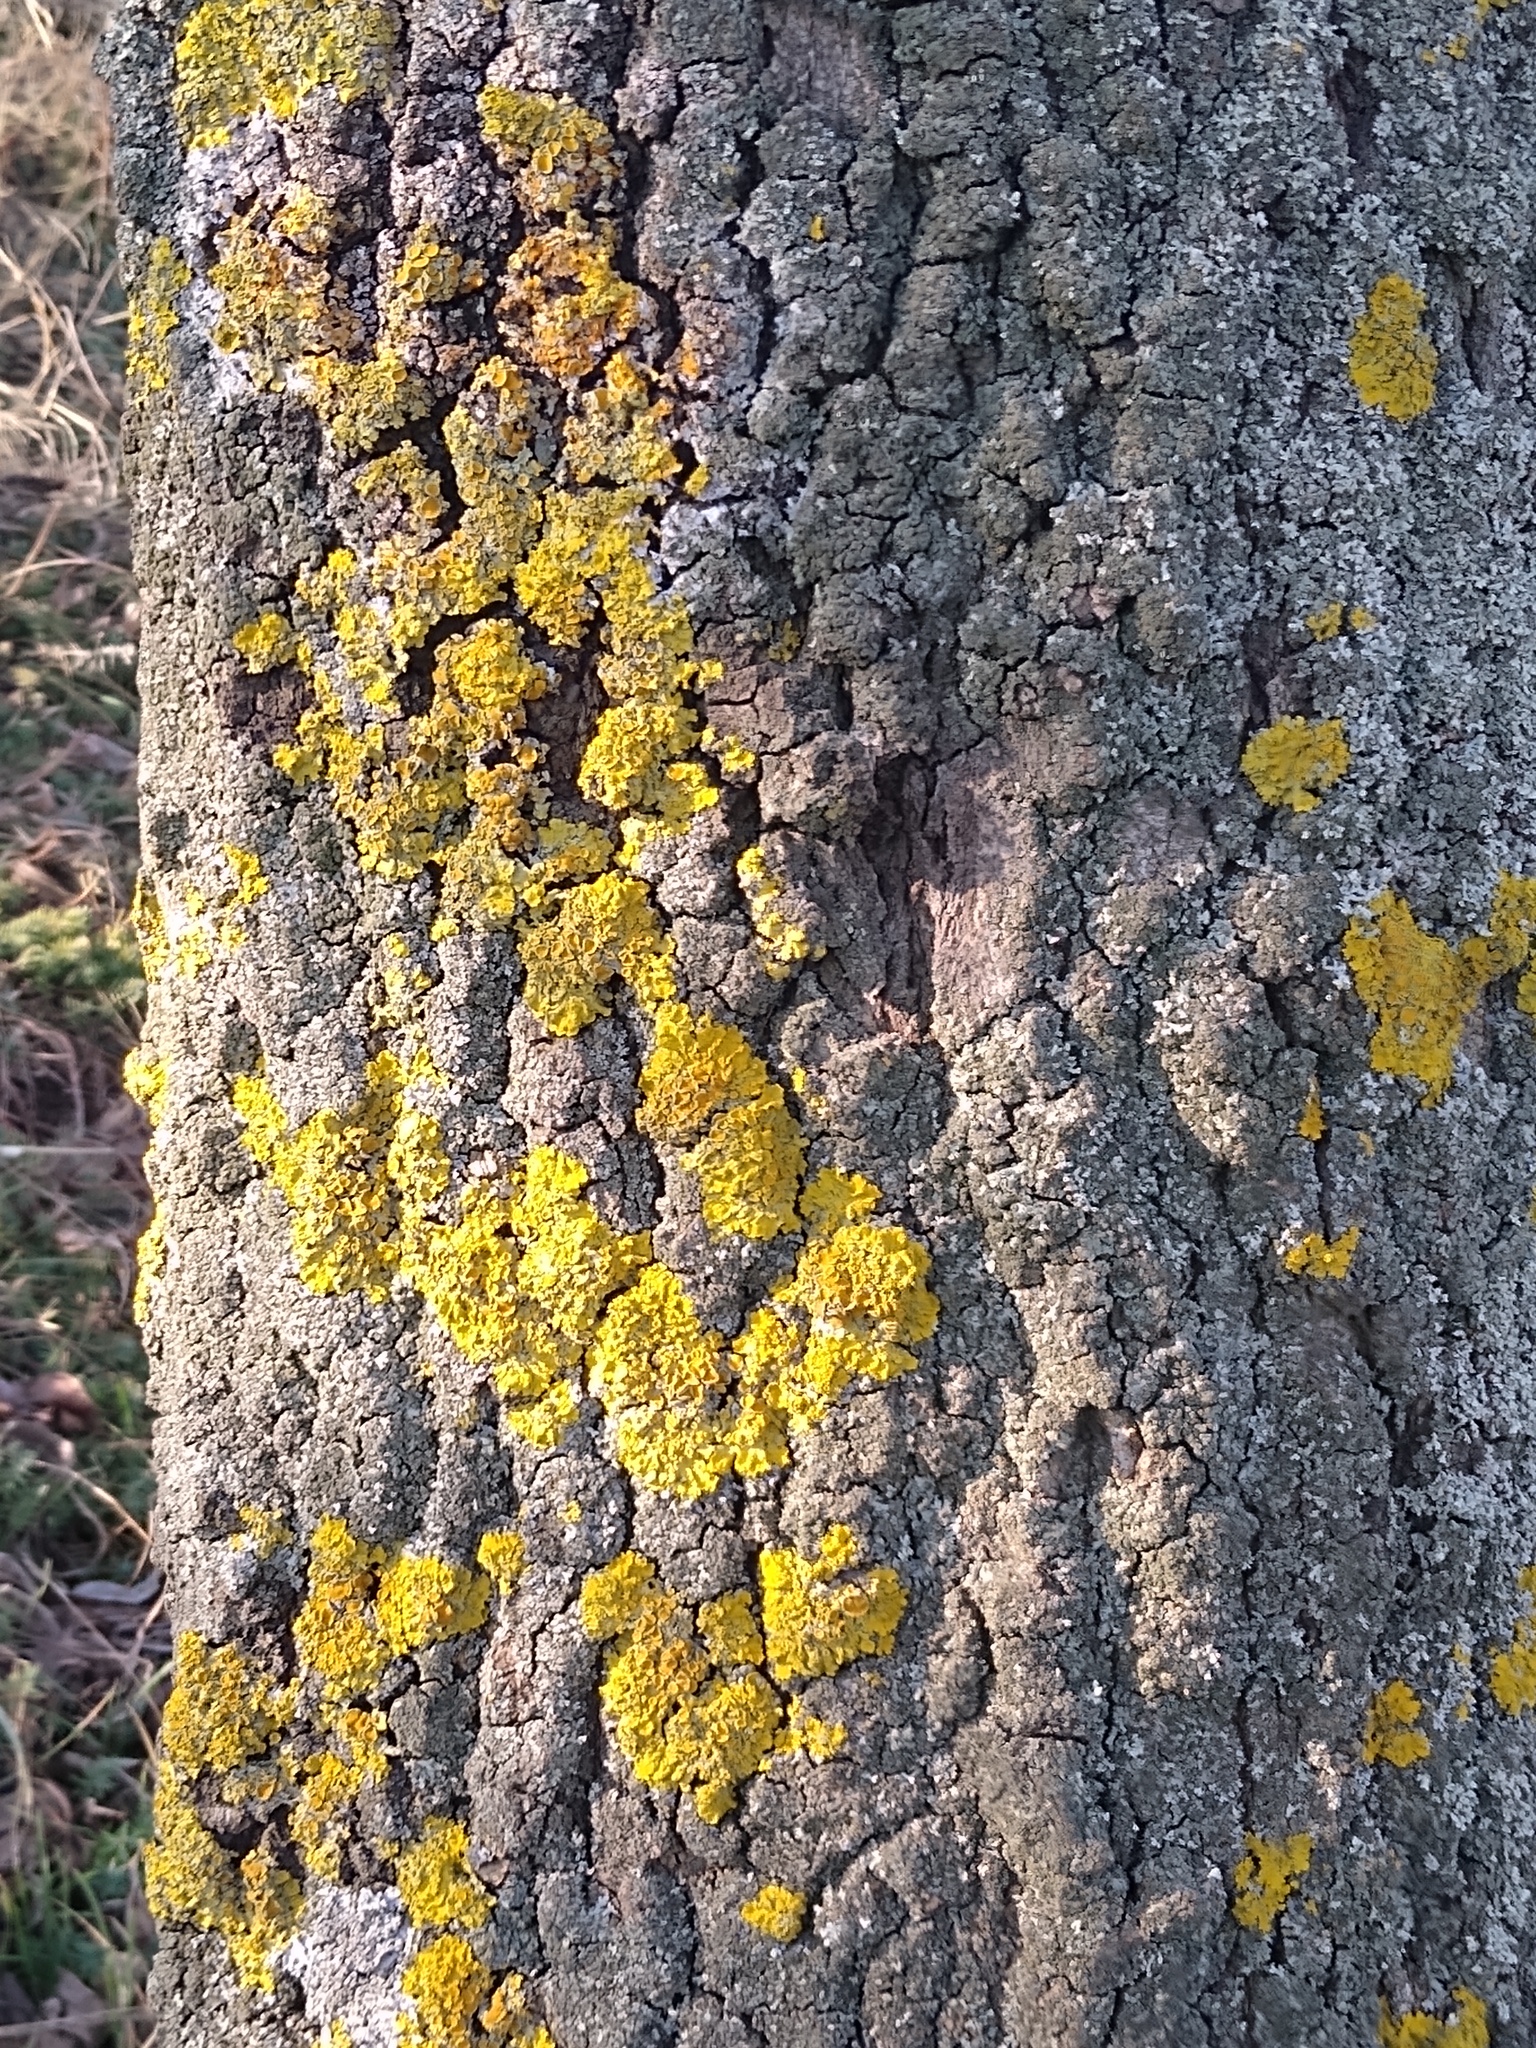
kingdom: Fungi
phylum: Ascomycota
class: Lecanoromycetes
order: Teloschistales
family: Teloschistaceae
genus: Xanthoria
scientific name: Xanthoria parietina
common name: Common orange lichen
